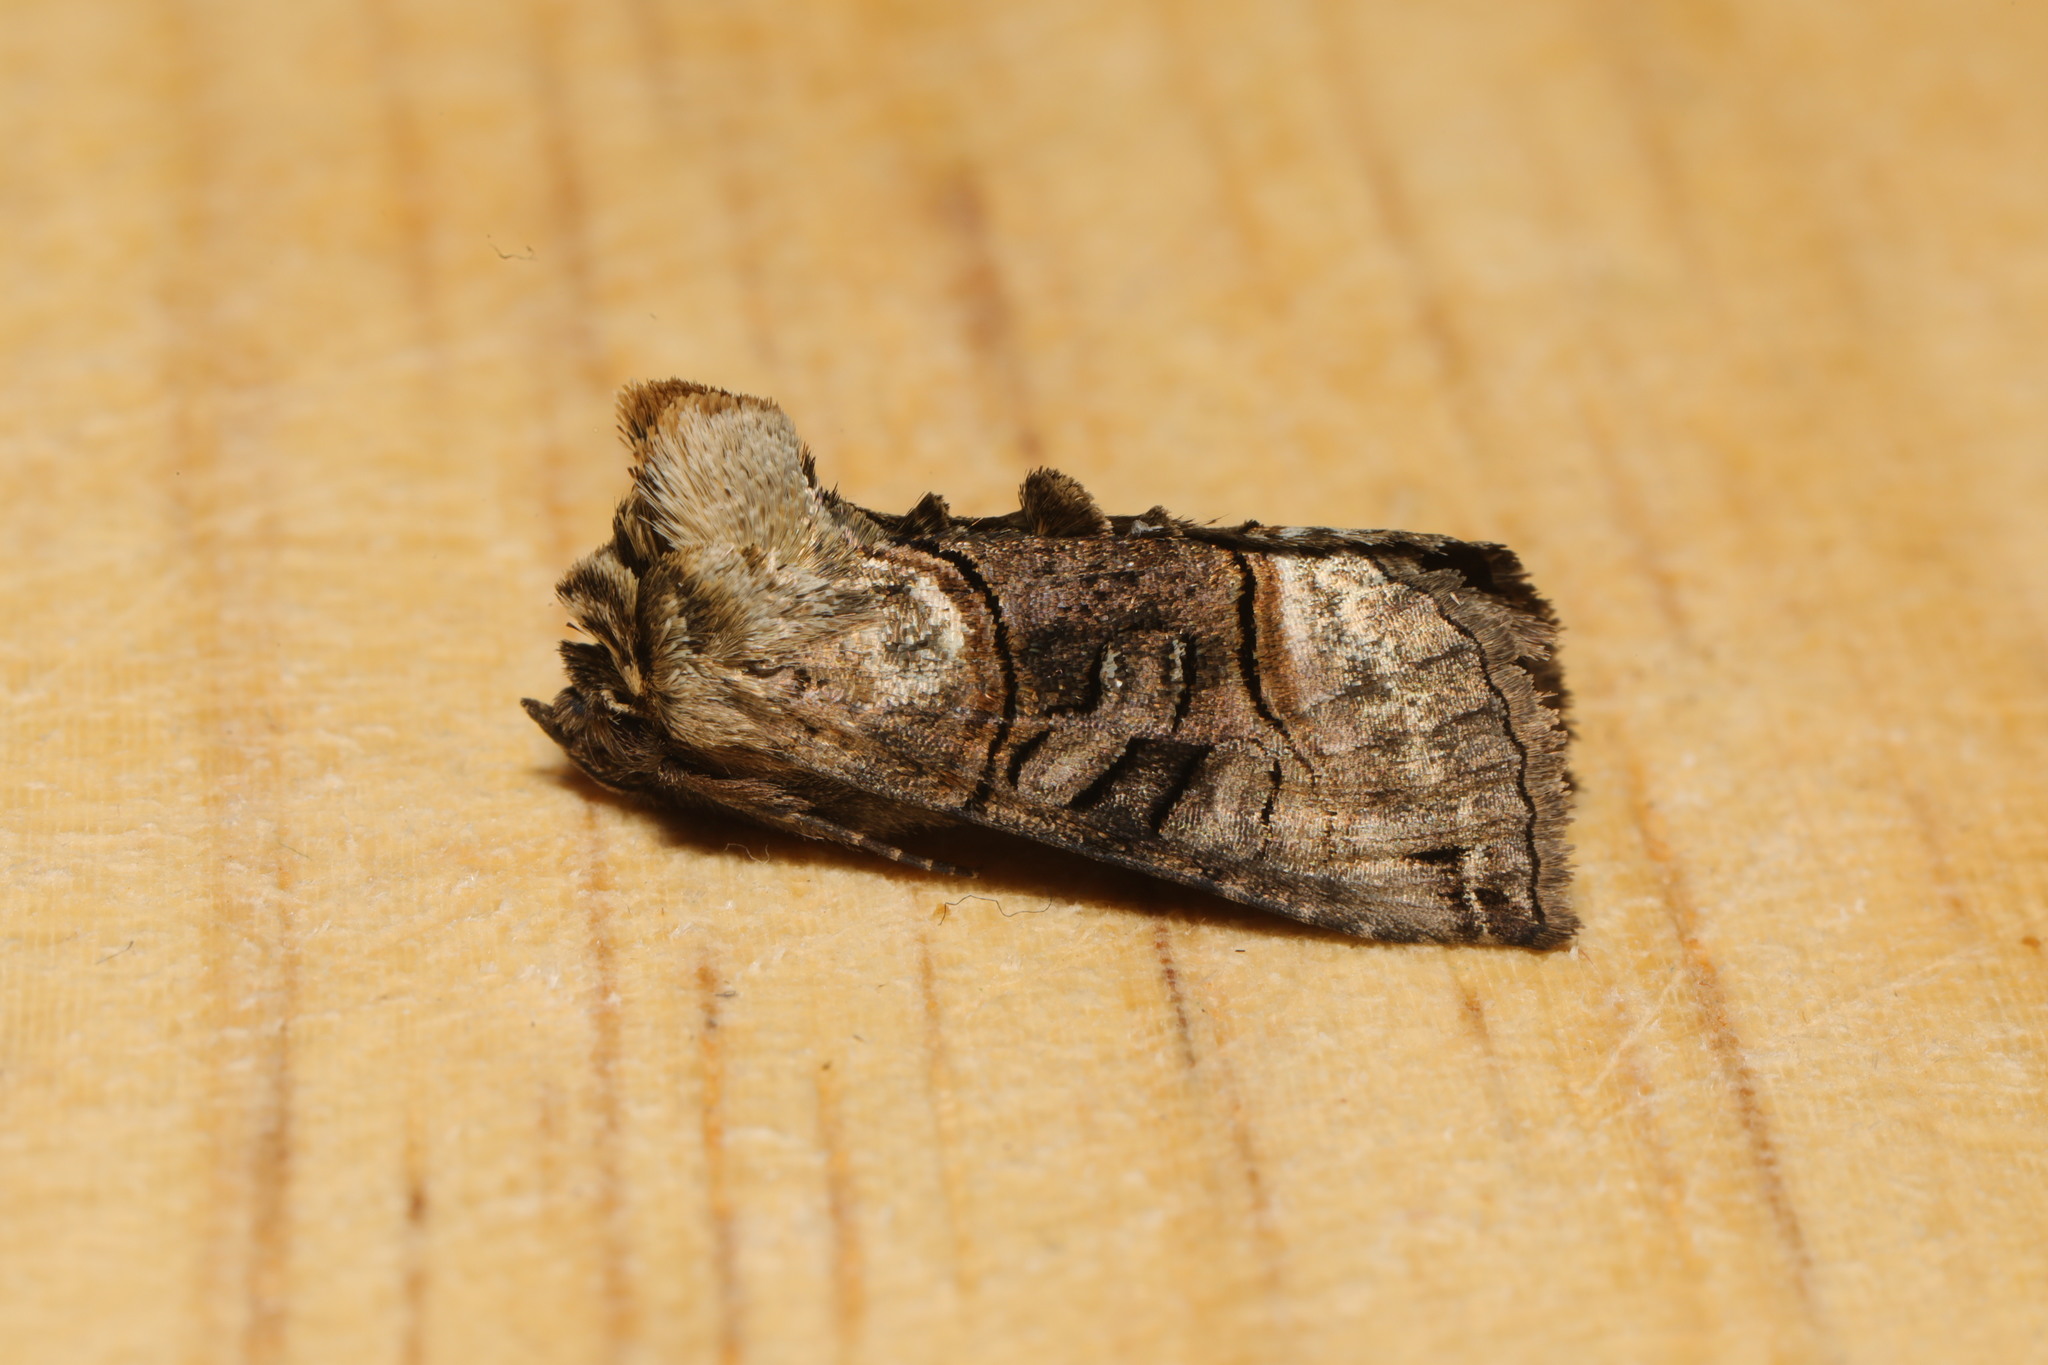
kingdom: Animalia
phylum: Arthropoda
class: Insecta
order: Lepidoptera
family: Noctuidae
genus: Abrostola
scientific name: Abrostola tripartita
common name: Spectacle
